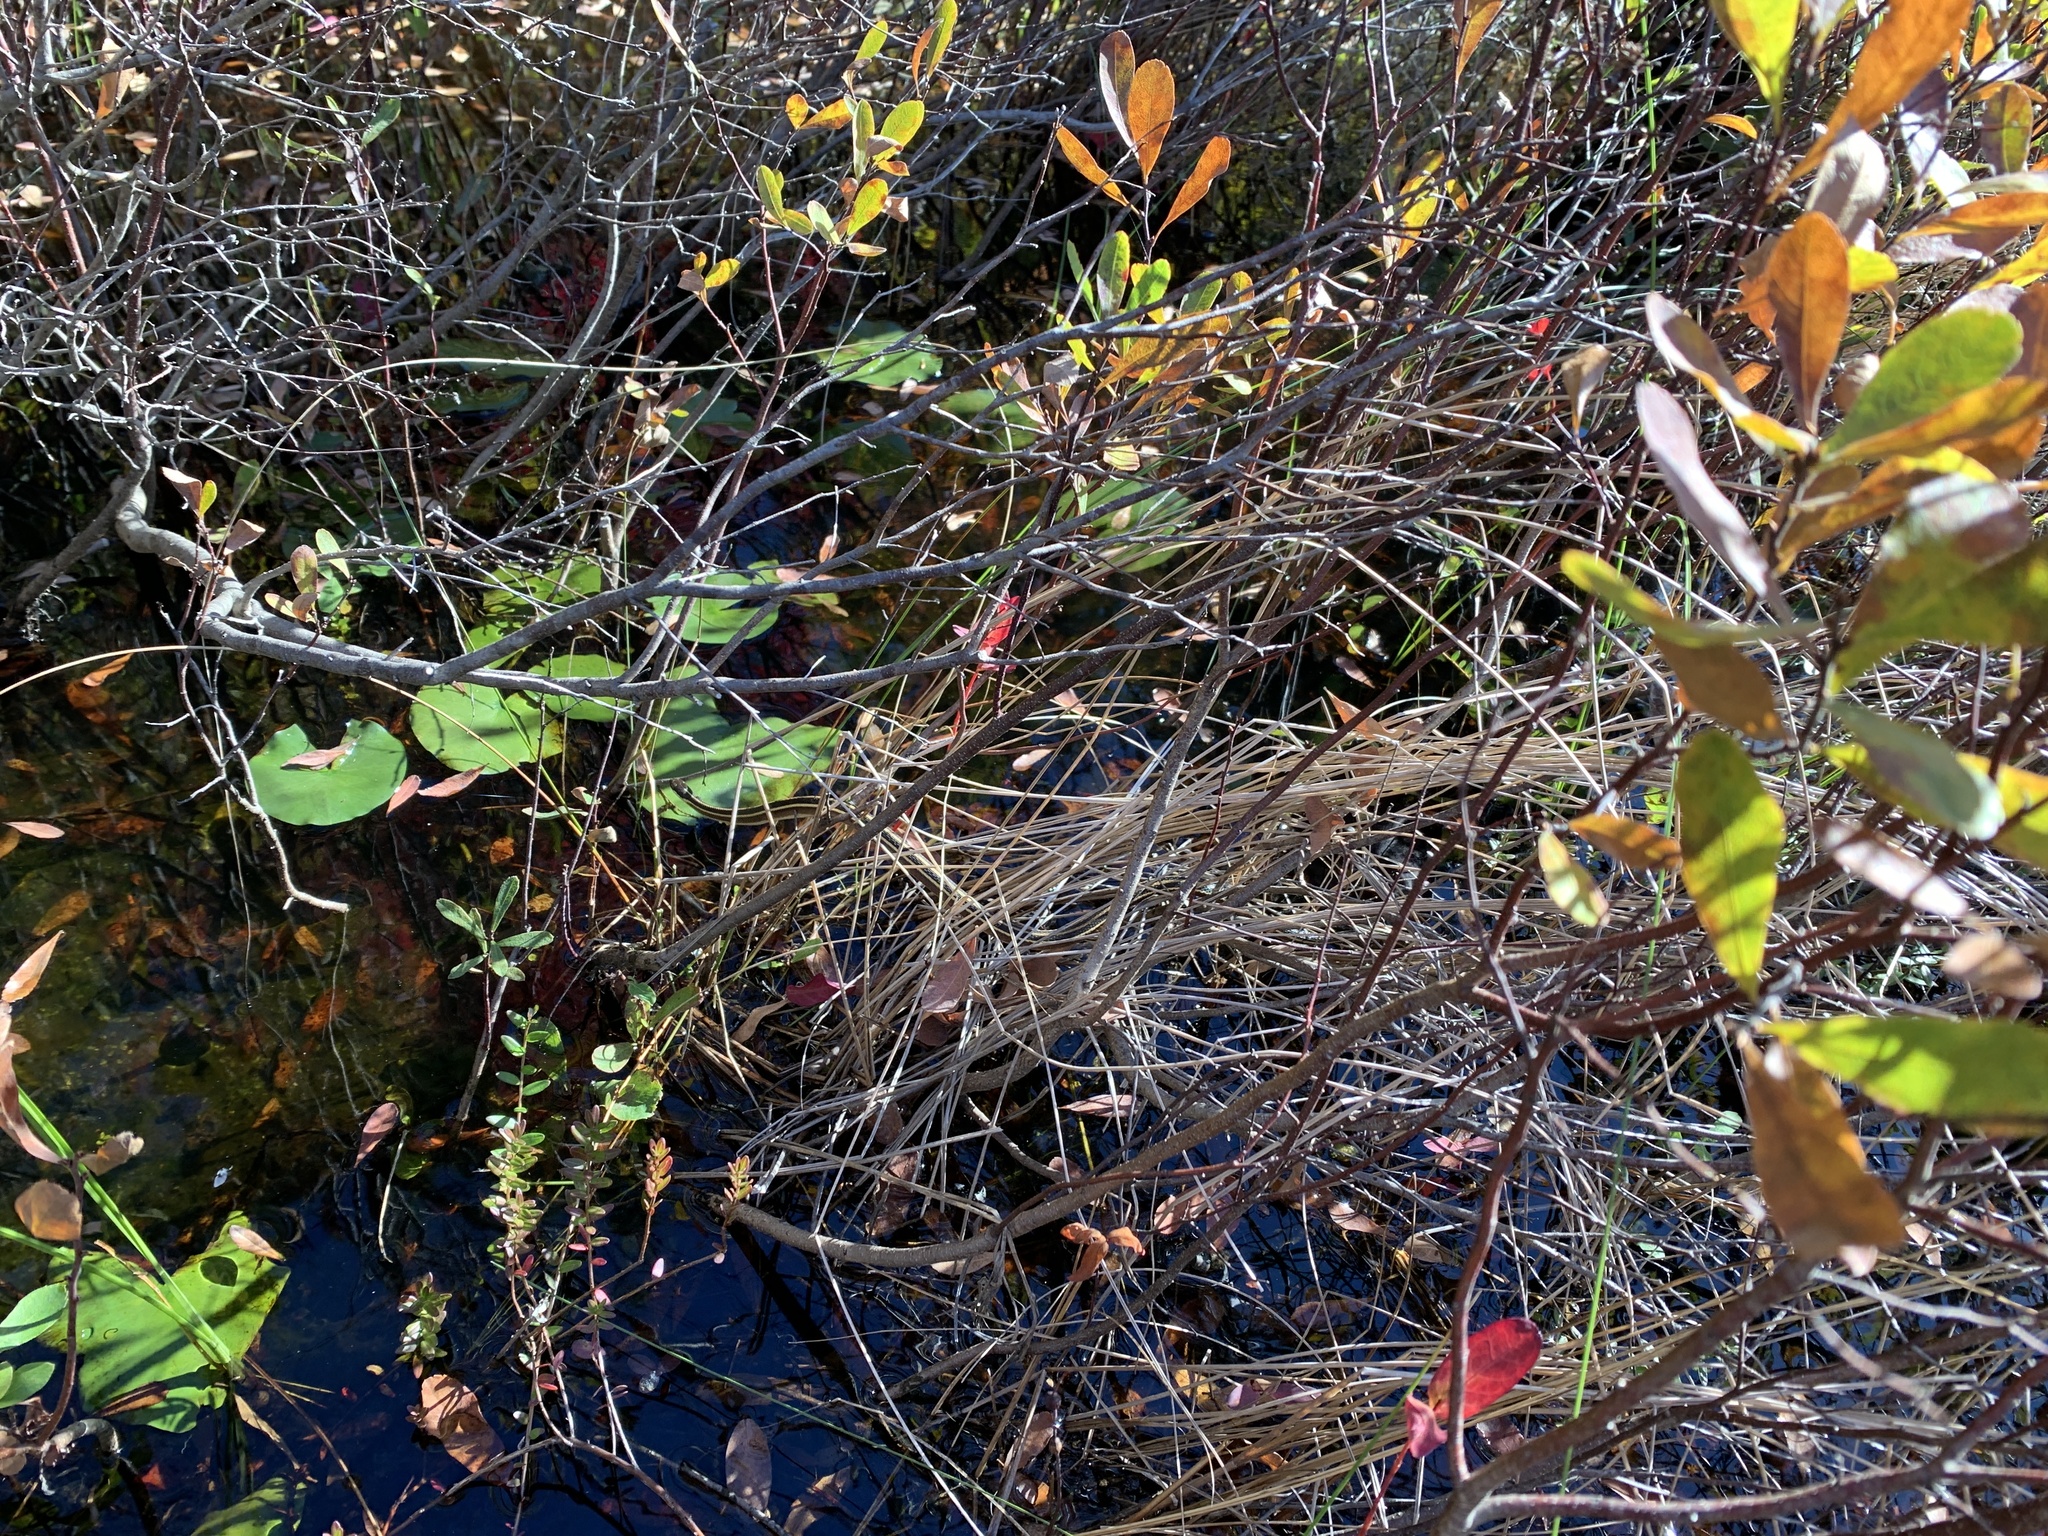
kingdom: Animalia
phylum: Chordata
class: Squamata
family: Colubridae
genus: Thamnophis
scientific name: Thamnophis saurita
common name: Eastern ribbonsnake
